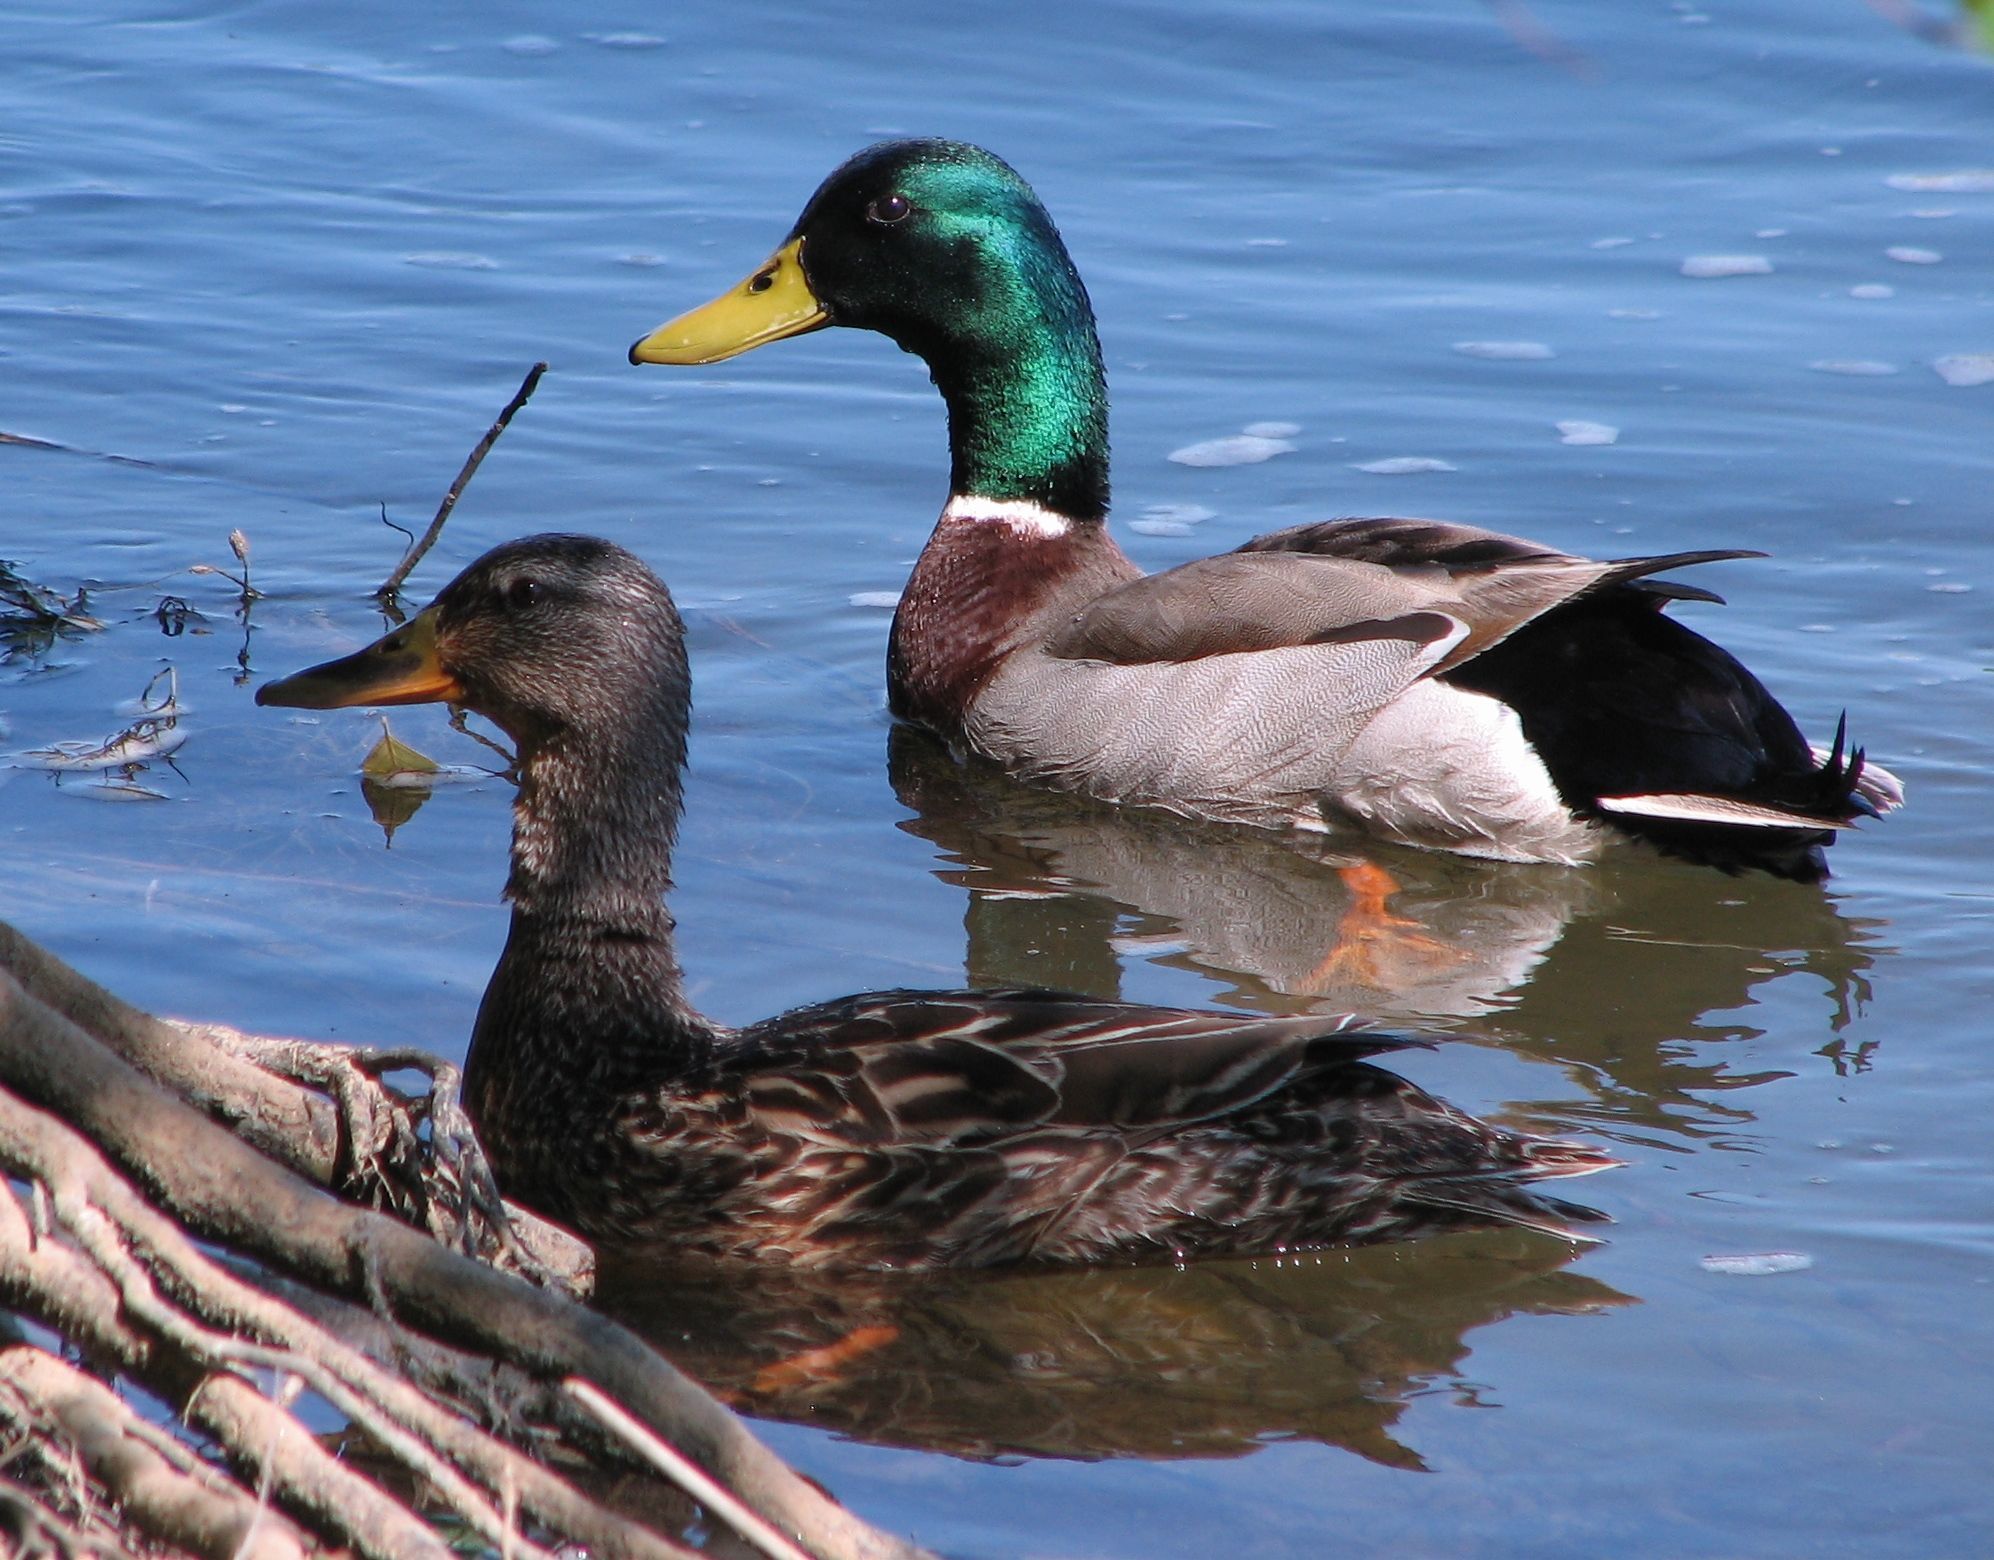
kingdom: Animalia
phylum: Chordata
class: Aves
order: Anseriformes
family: Anatidae
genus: Anas
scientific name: Anas platyrhynchos
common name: Mallard
